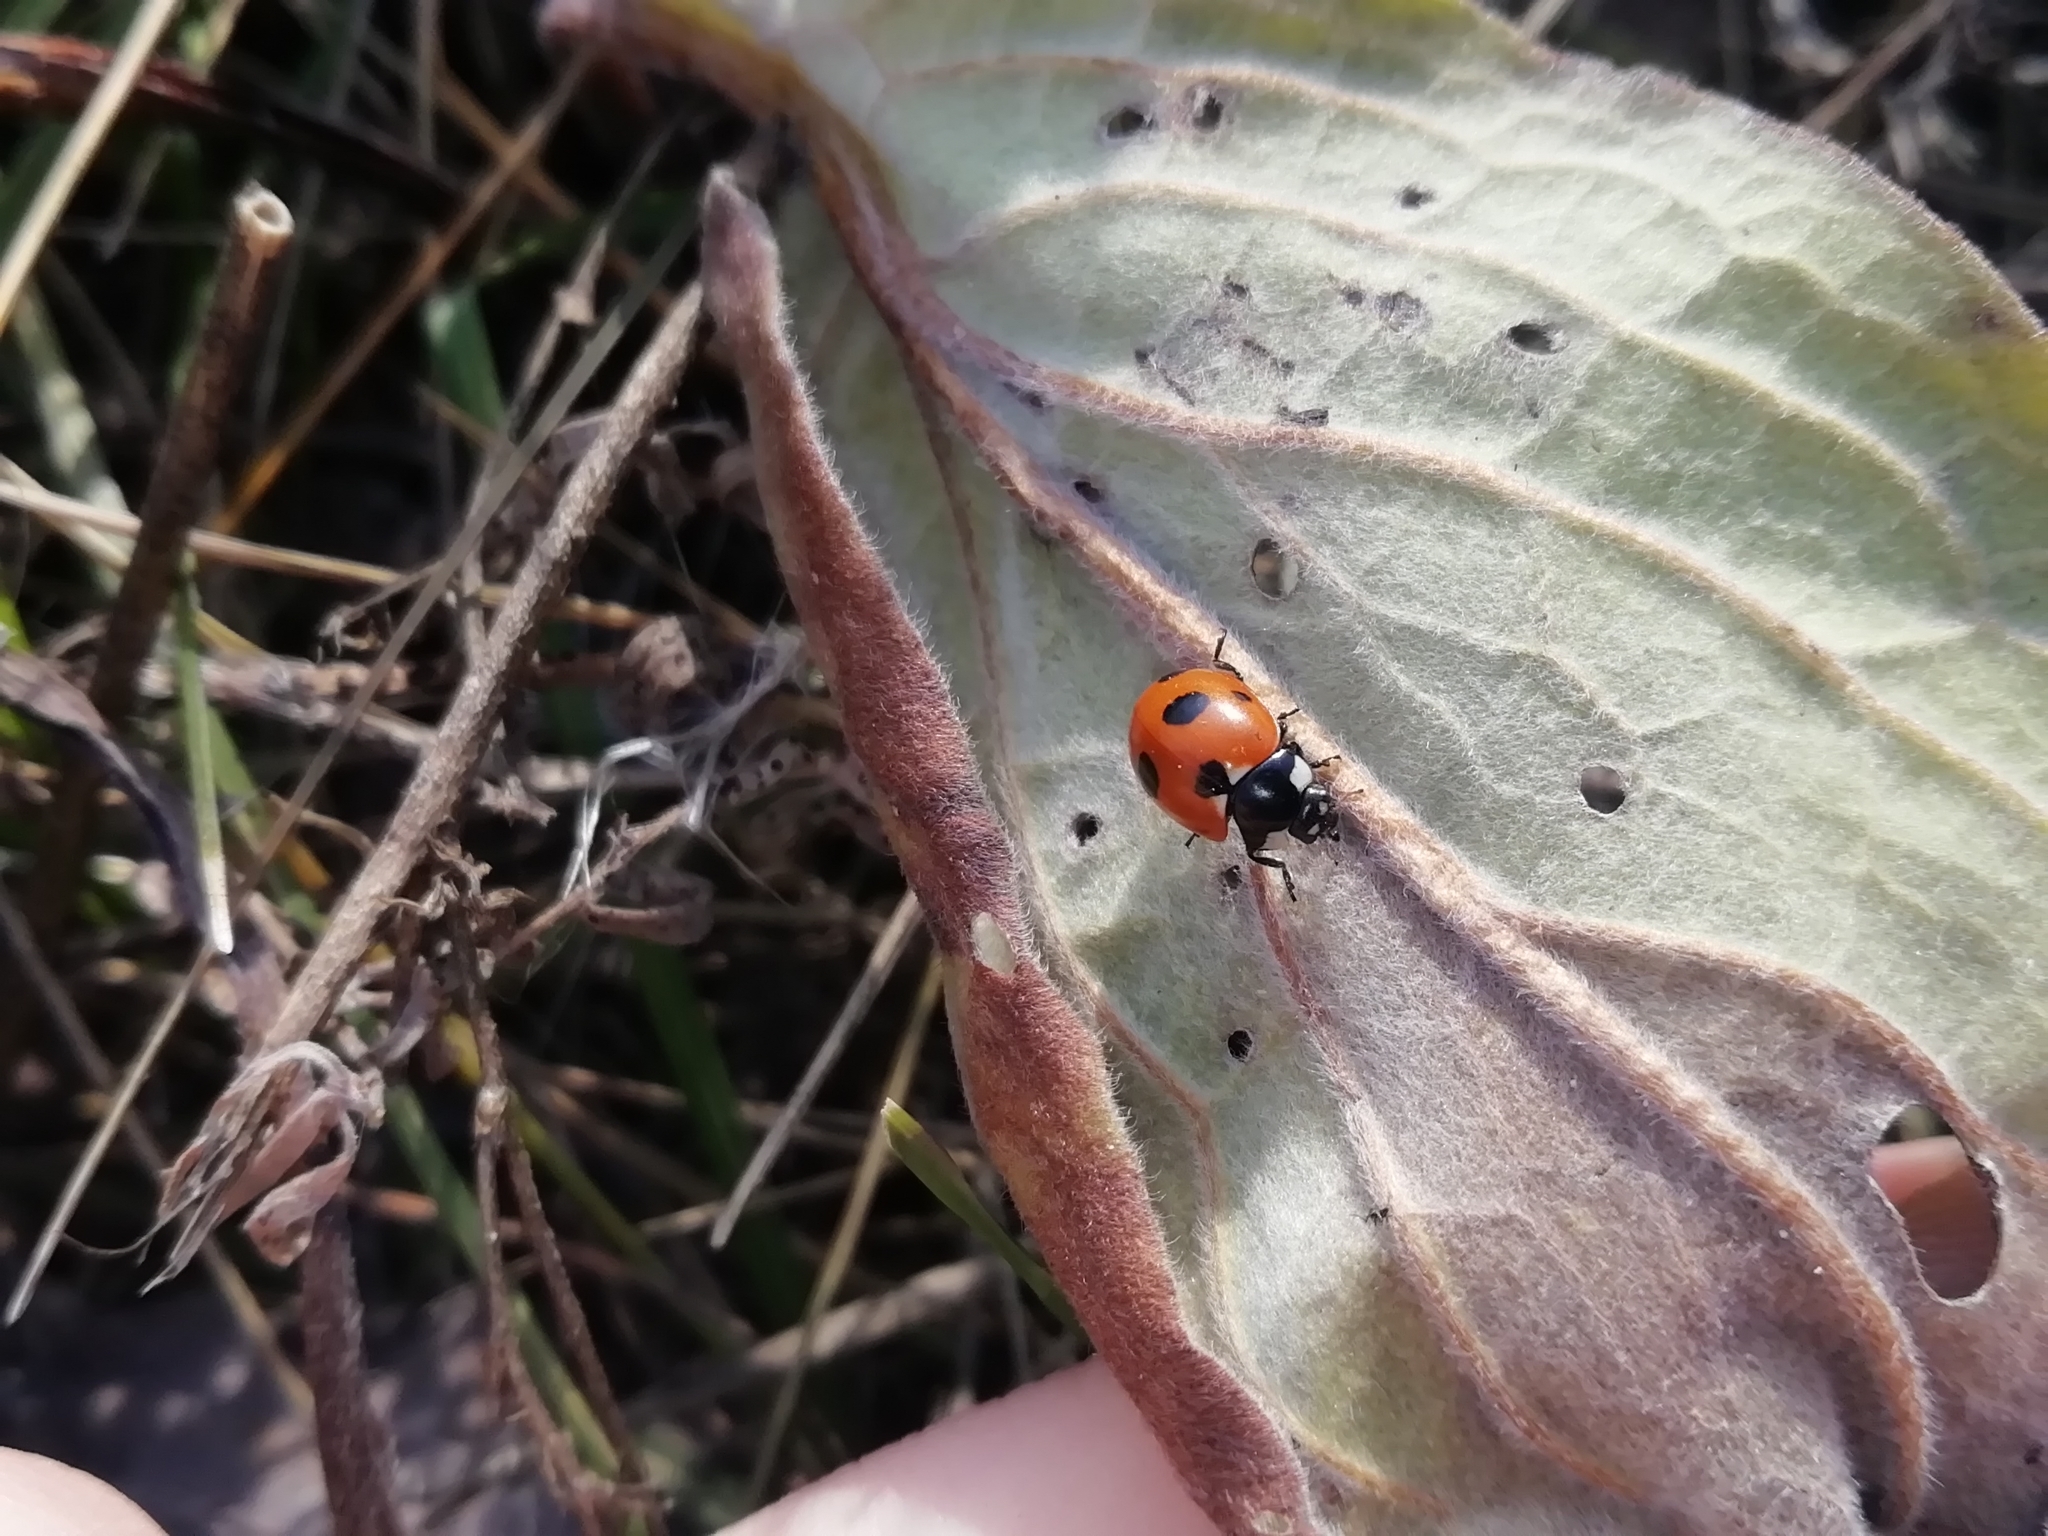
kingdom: Animalia
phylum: Arthropoda
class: Insecta
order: Coleoptera
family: Coccinellidae
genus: Coccinella
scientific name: Coccinella magnifica
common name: Scarce 7-spot ladybird
